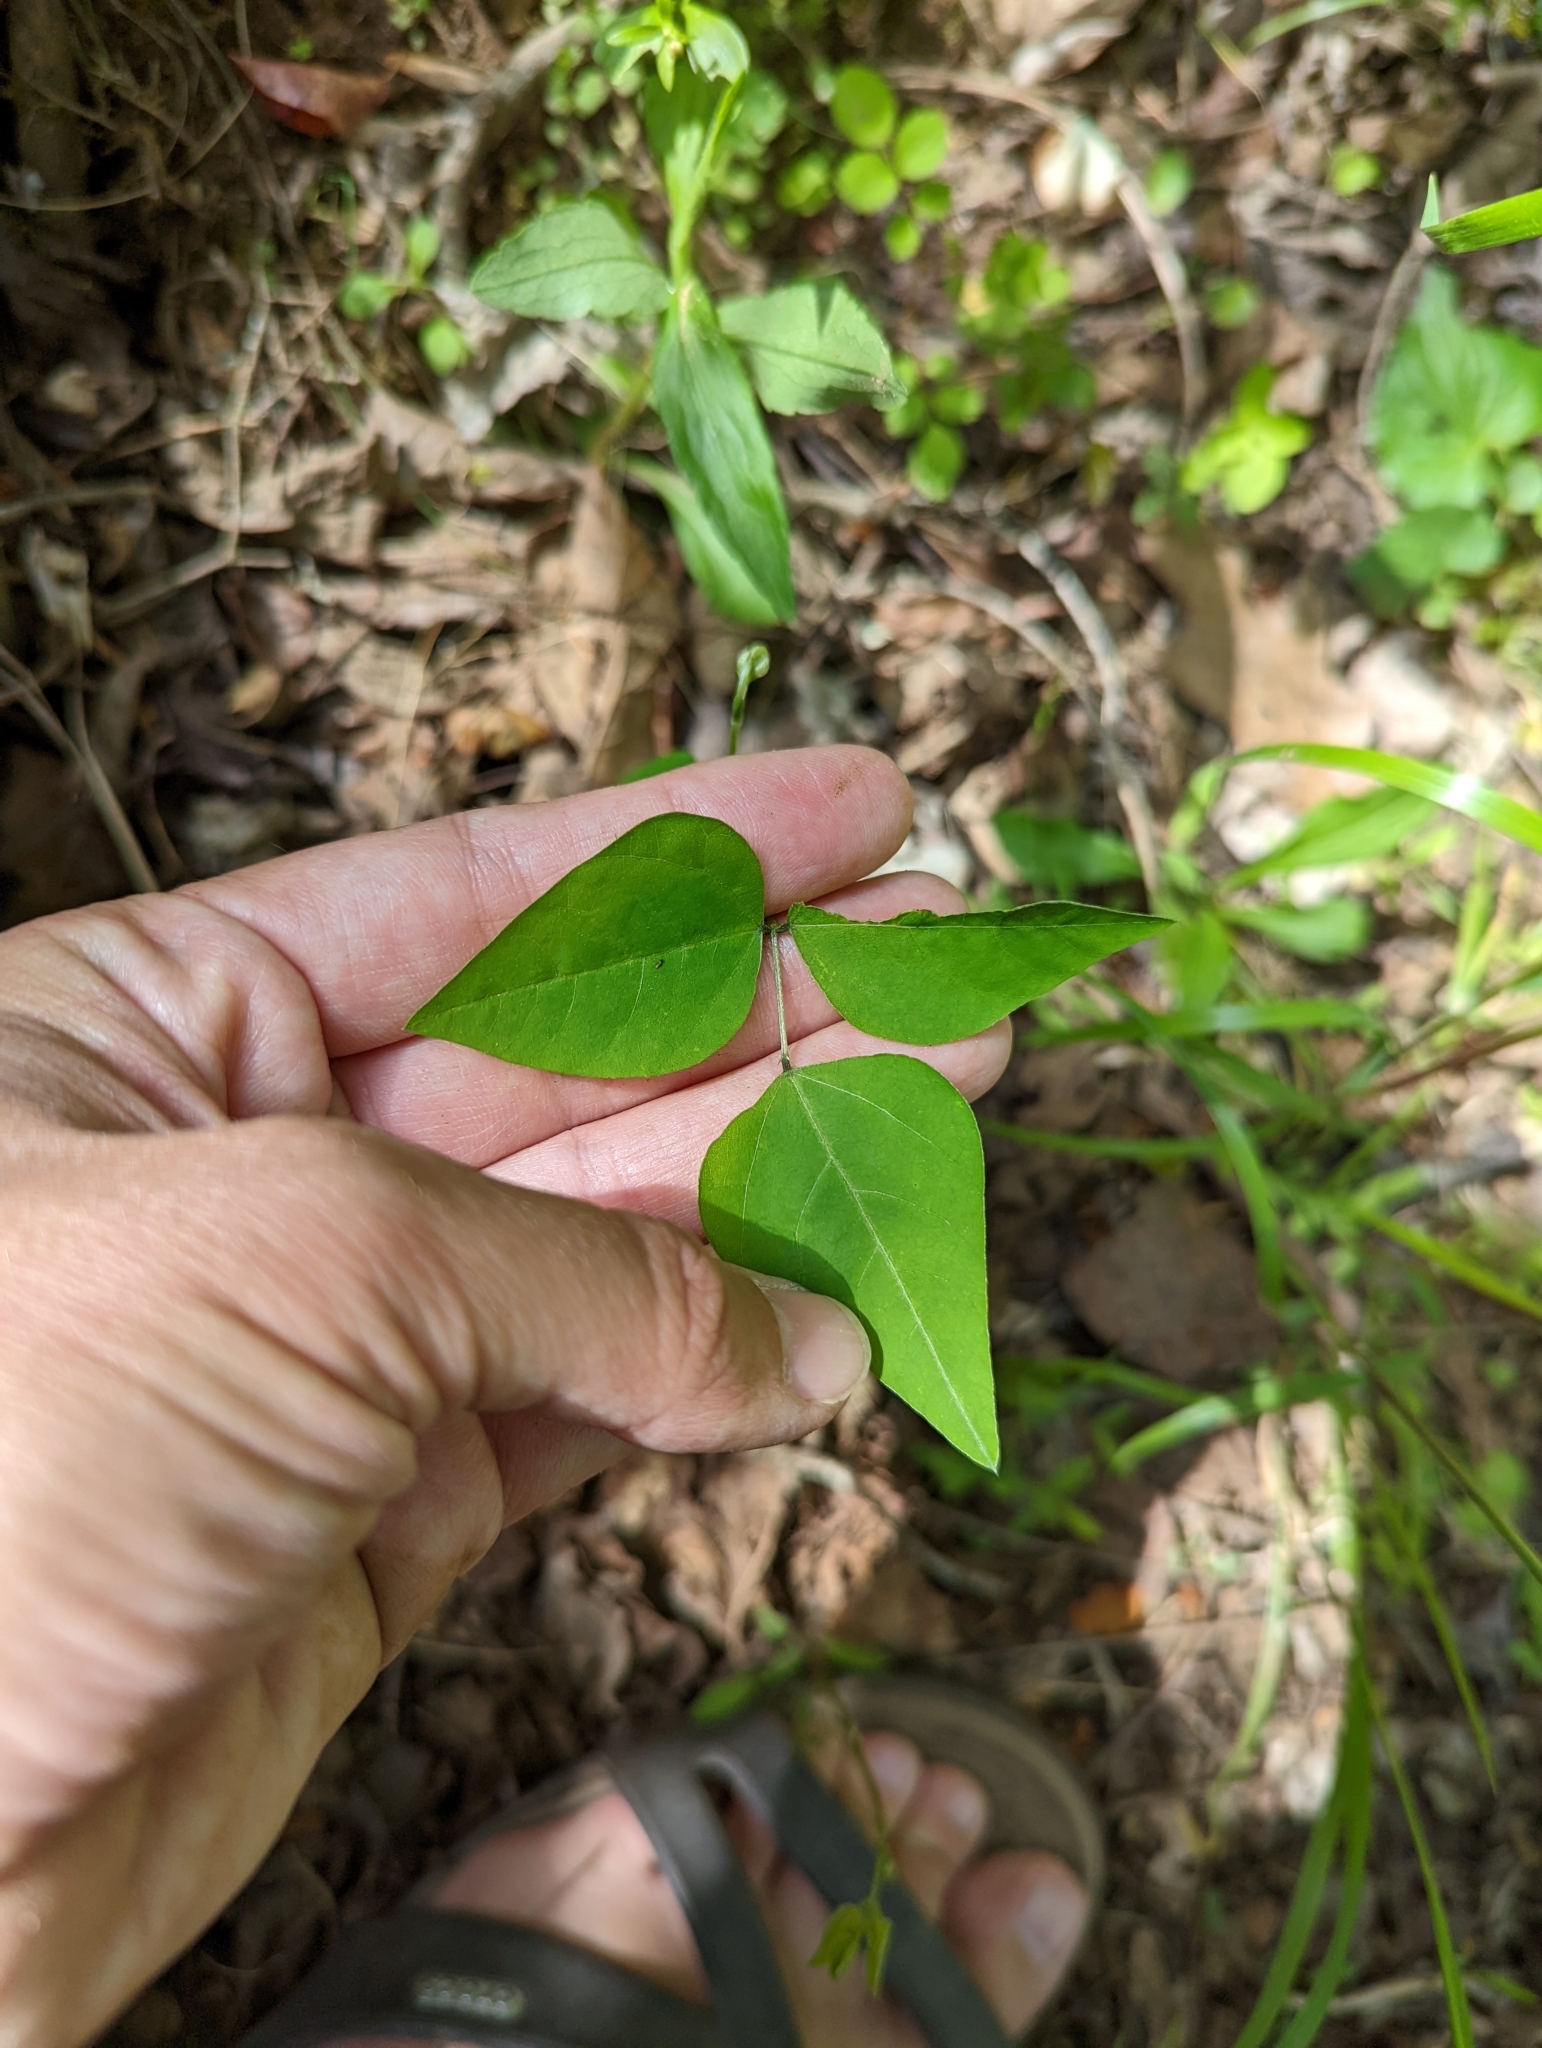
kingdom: Plantae
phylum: Tracheophyta
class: Magnoliopsida
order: Fabales
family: Fabaceae
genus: Amphicarpaea
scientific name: Amphicarpaea bracteata
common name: American hog peanut
